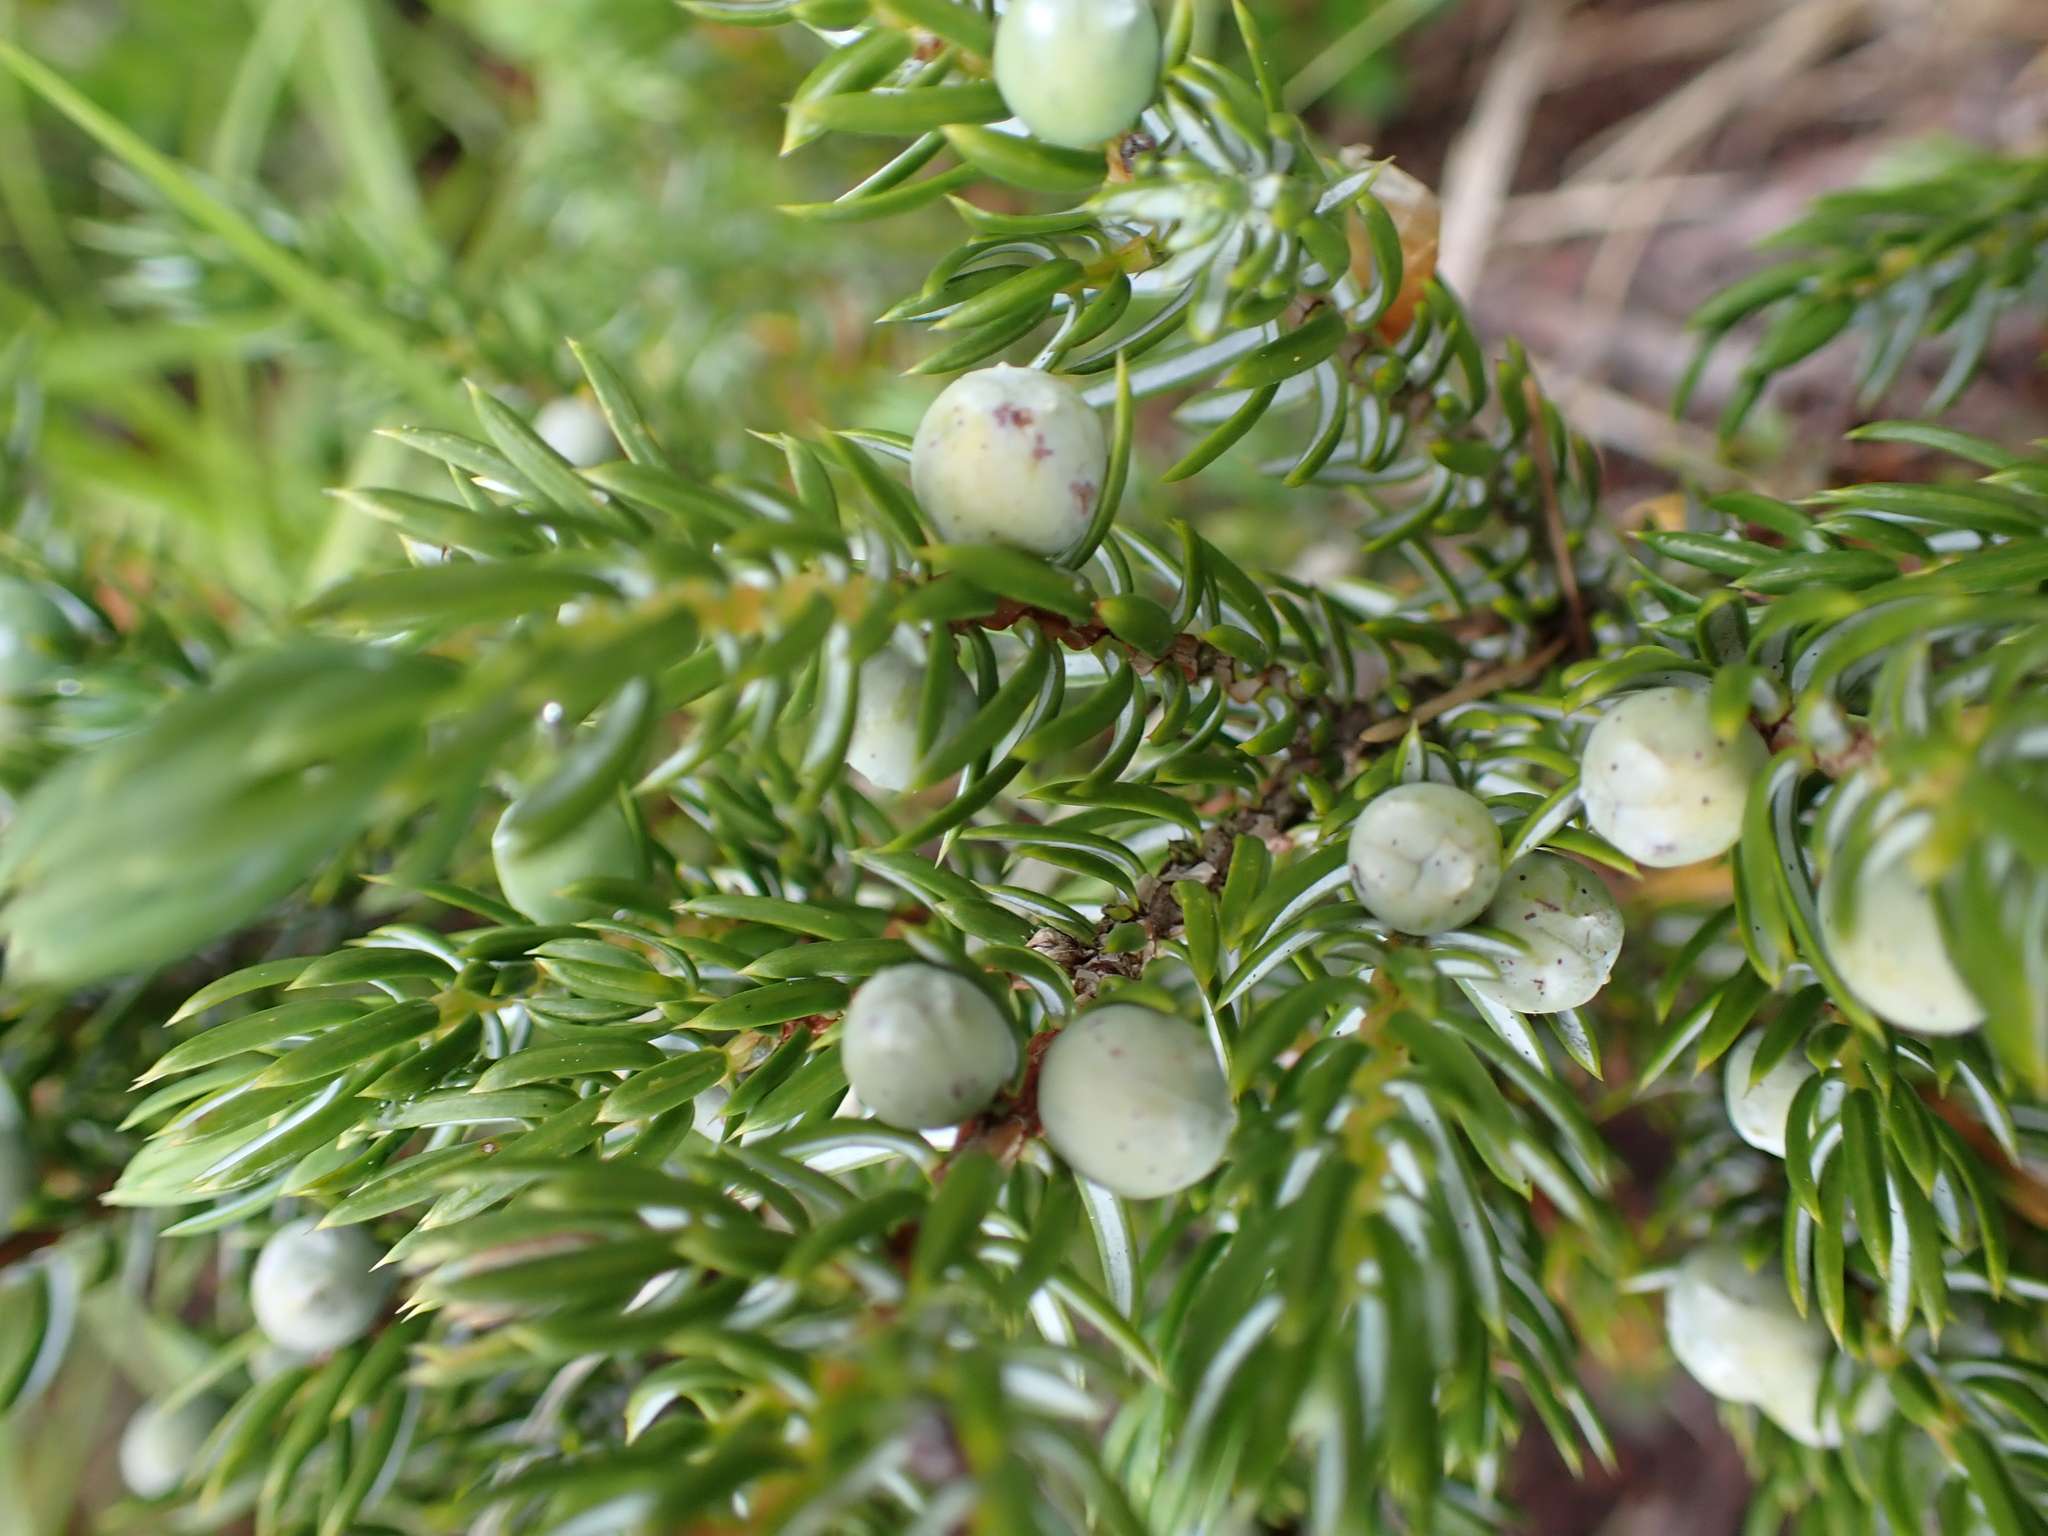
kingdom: Plantae
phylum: Tracheophyta
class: Pinopsida
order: Pinales
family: Cupressaceae
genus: Juniperus
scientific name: Juniperus communis
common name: Common juniper
